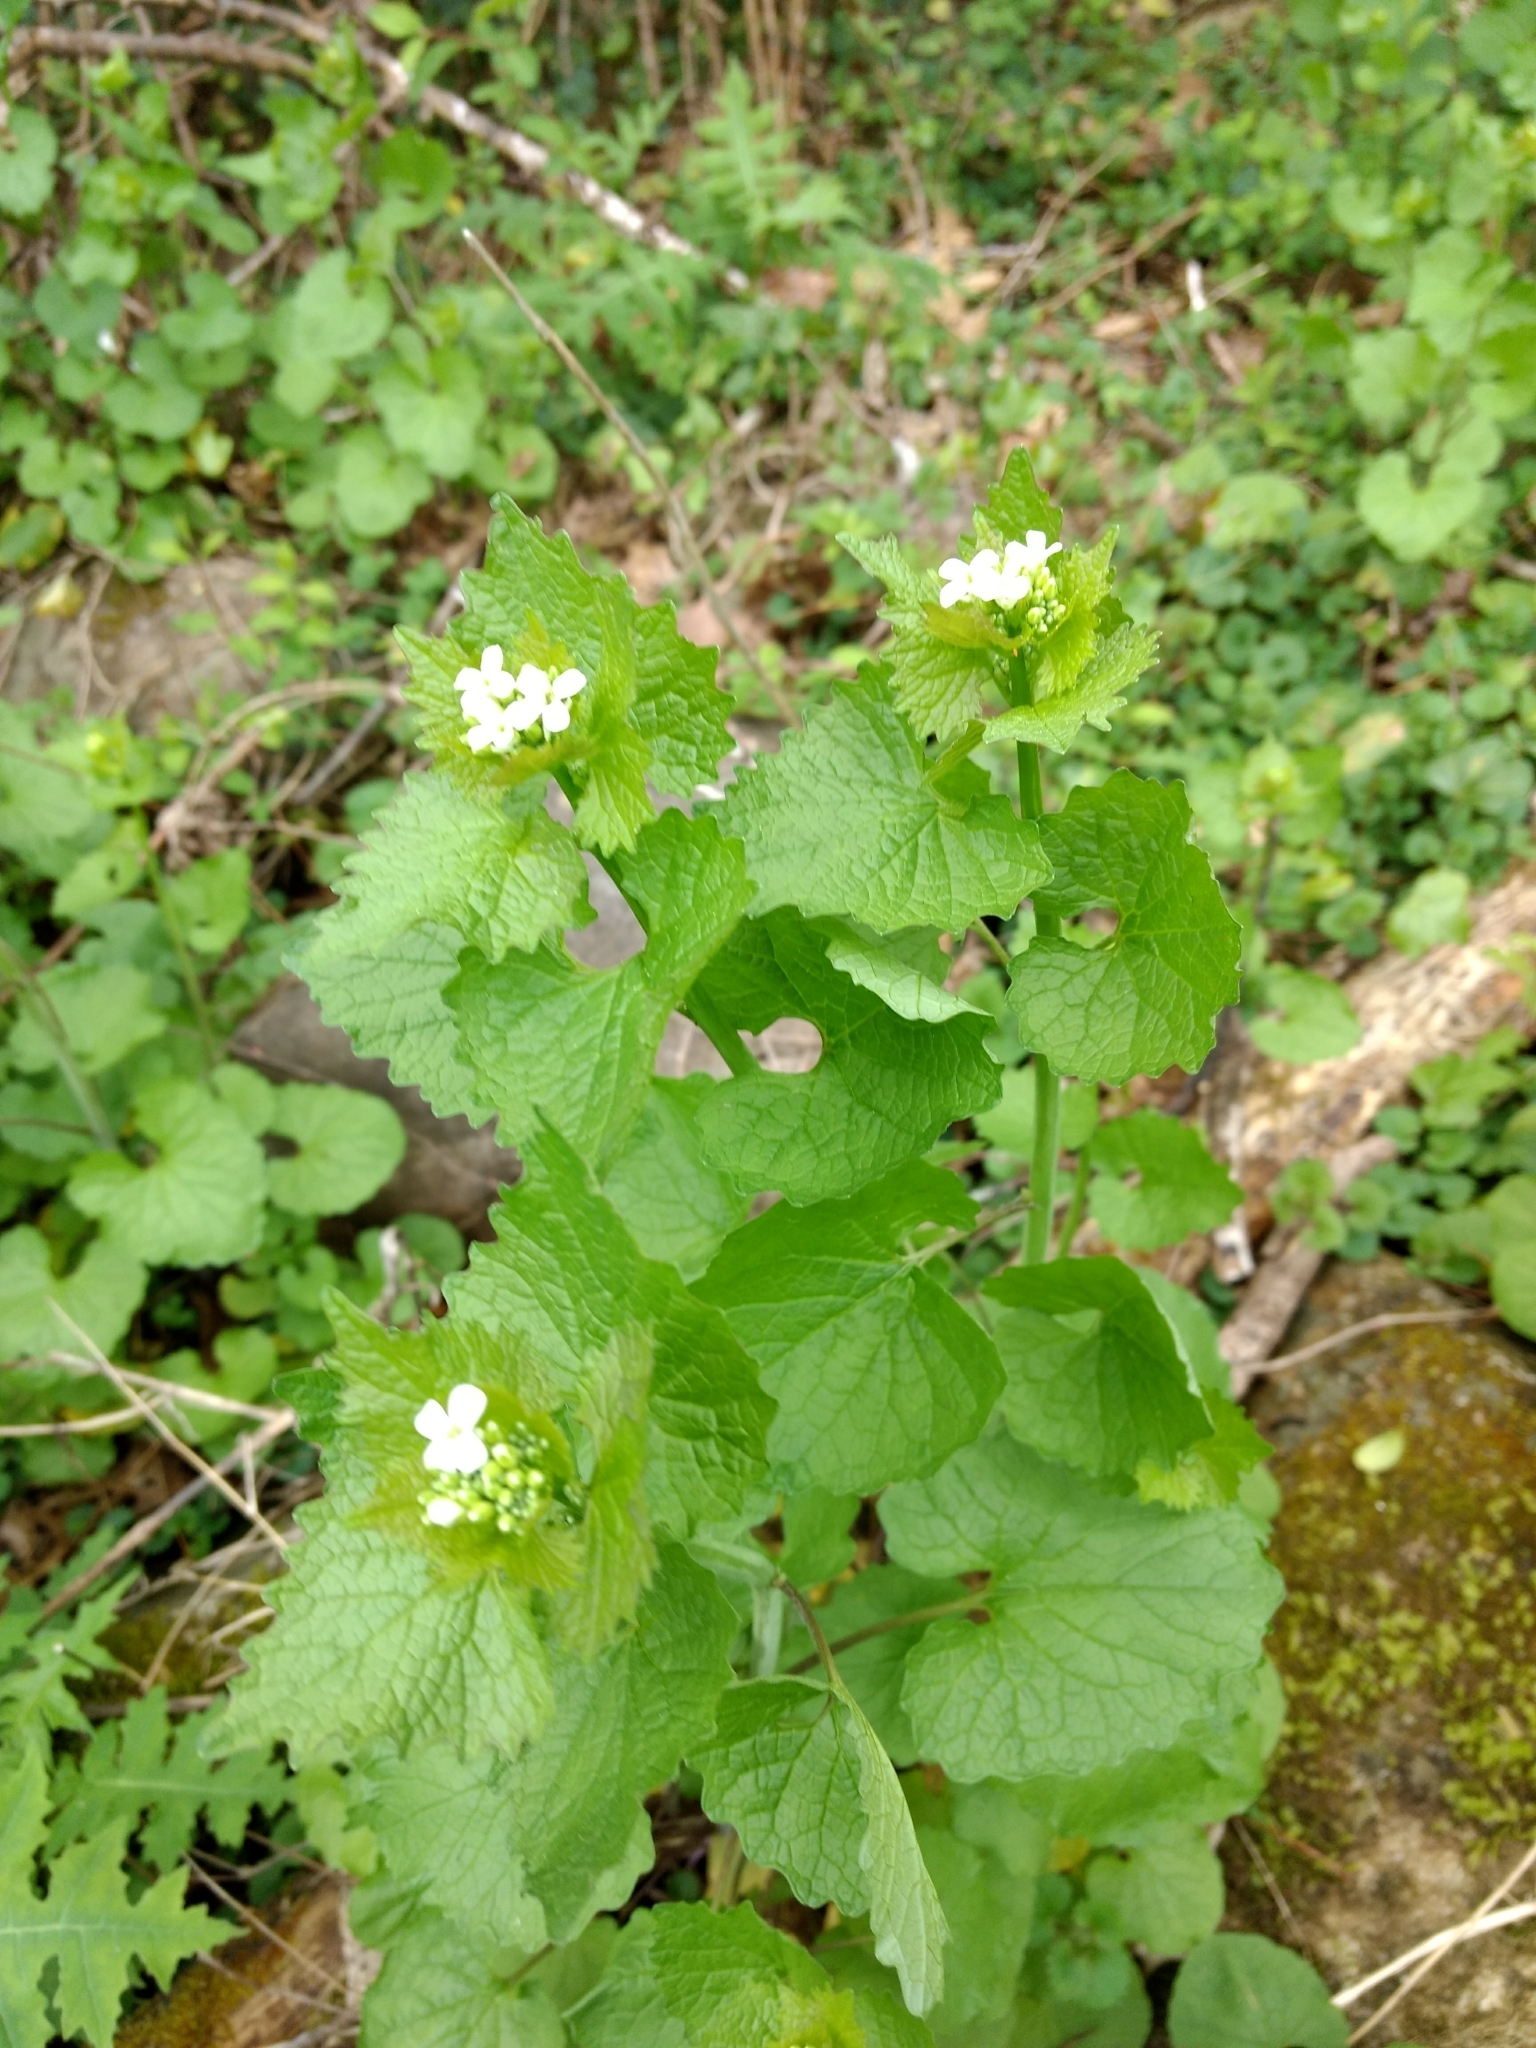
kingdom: Plantae
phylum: Tracheophyta
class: Magnoliopsida
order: Brassicales
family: Brassicaceae
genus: Alliaria
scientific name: Alliaria petiolata
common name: Garlic mustard
